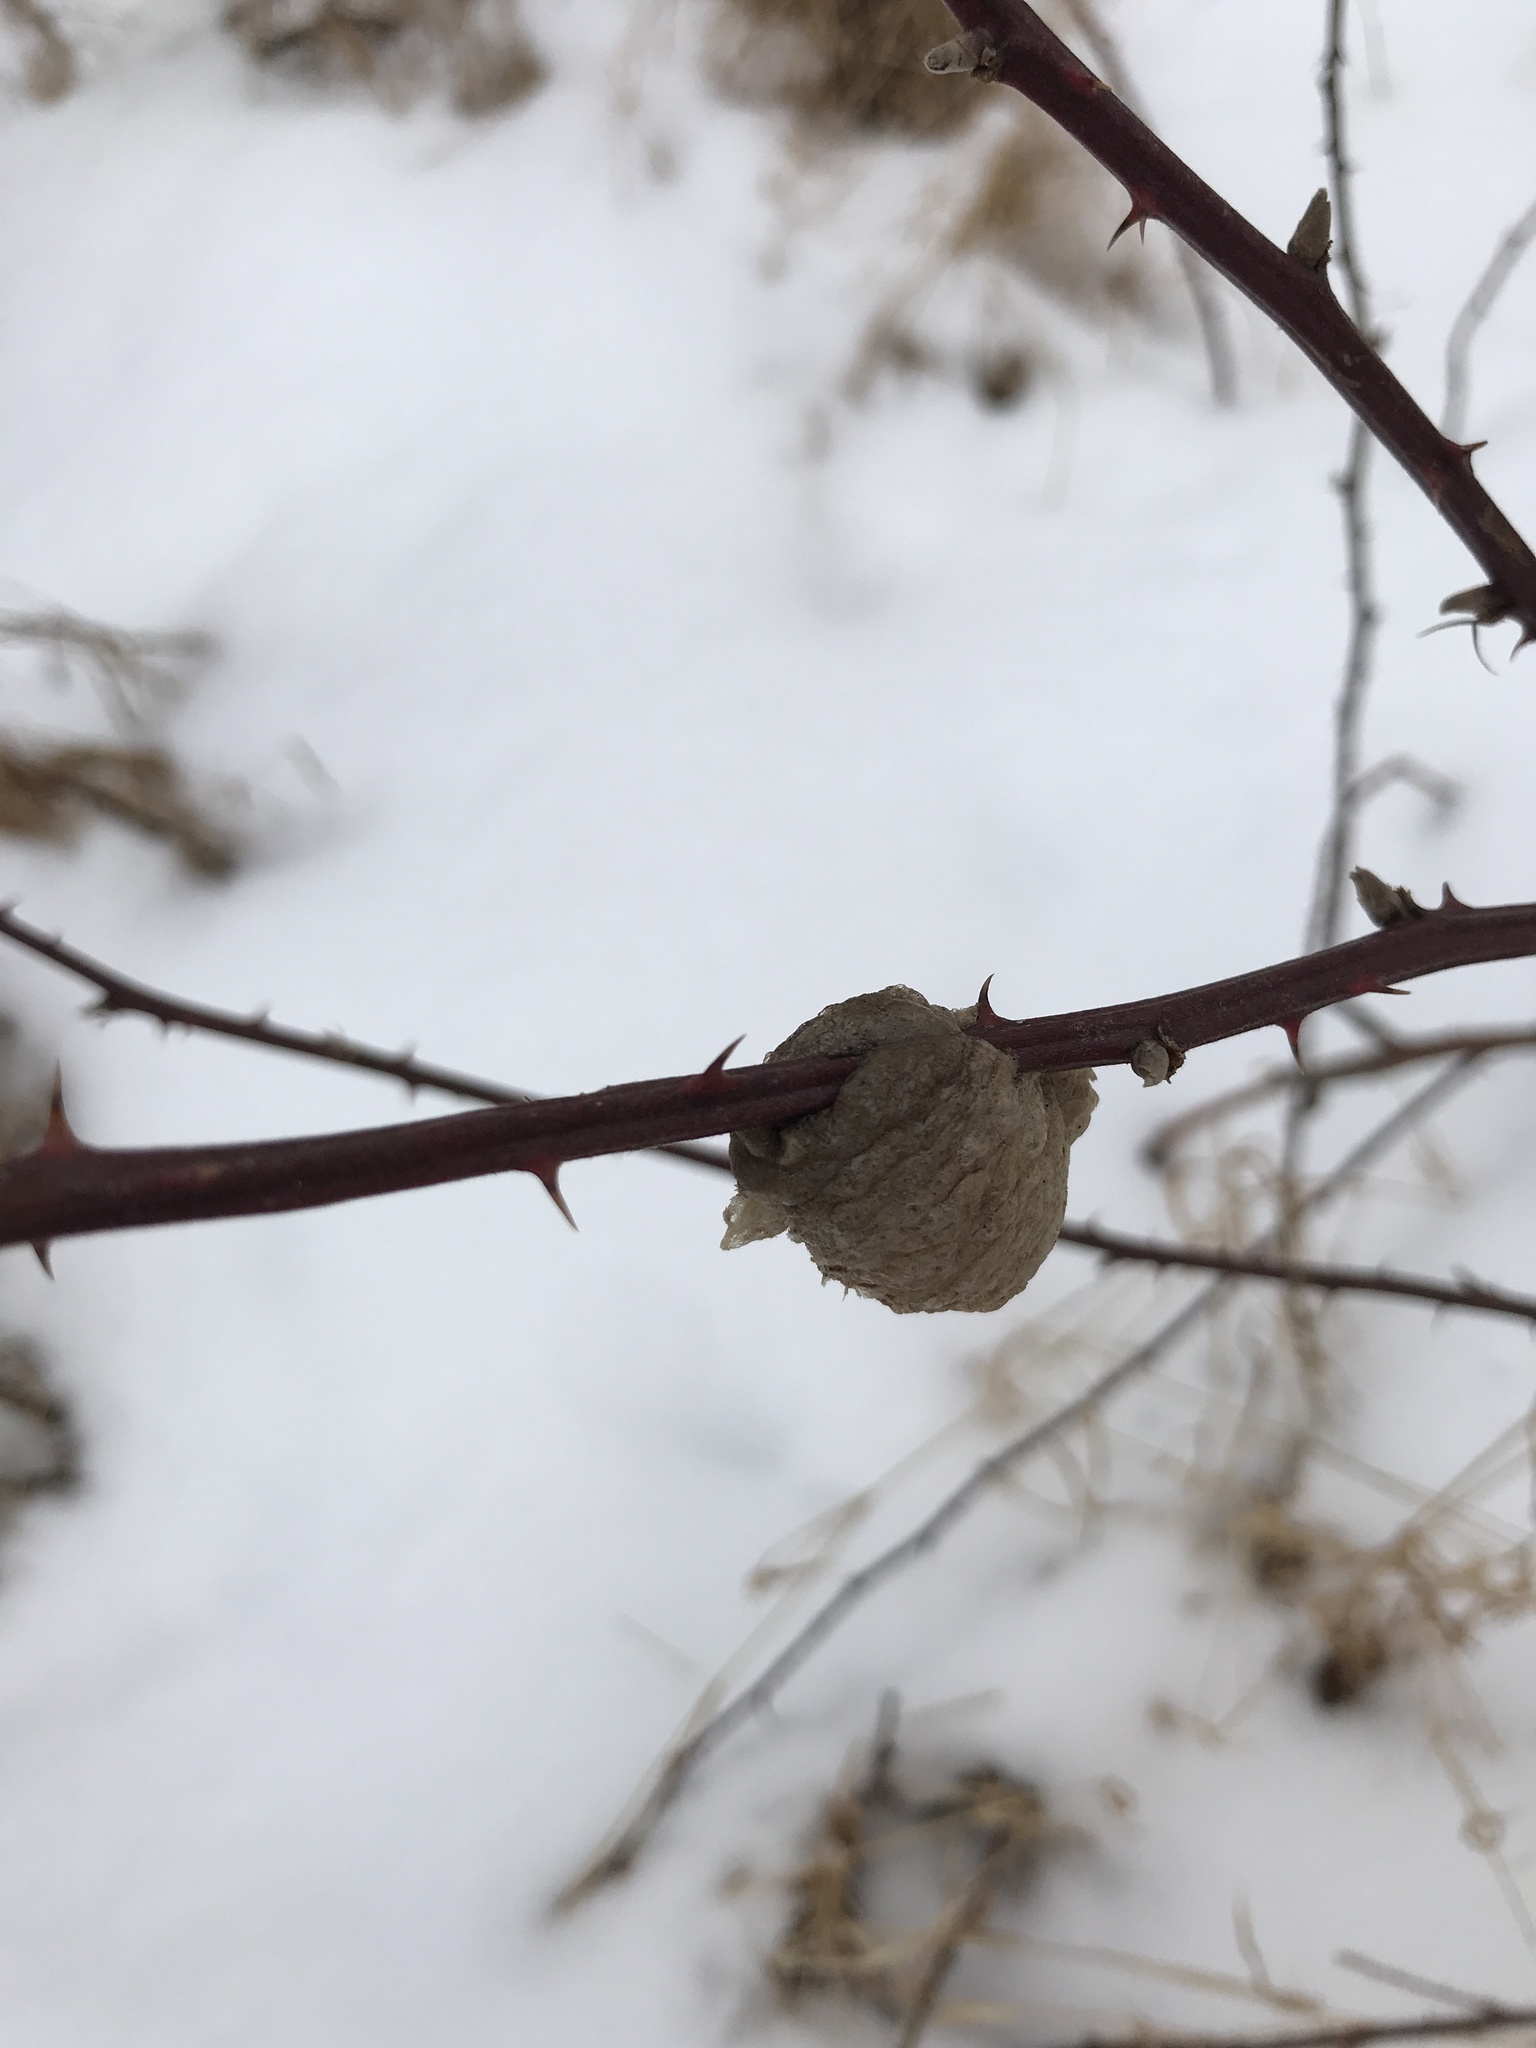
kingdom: Animalia
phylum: Arthropoda
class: Insecta
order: Mantodea
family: Mantidae
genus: Tenodera
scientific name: Tenodera sinensis
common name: Chinese mantis
